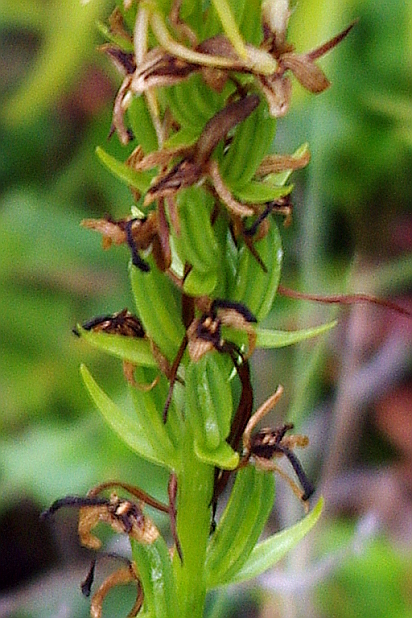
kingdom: Plantae
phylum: Tracheophyta
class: Liliopsida
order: Asparagales
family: Orchidaceae
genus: Platanthera
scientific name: Platanthera bifolia
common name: Lesser butterfly-orchid
